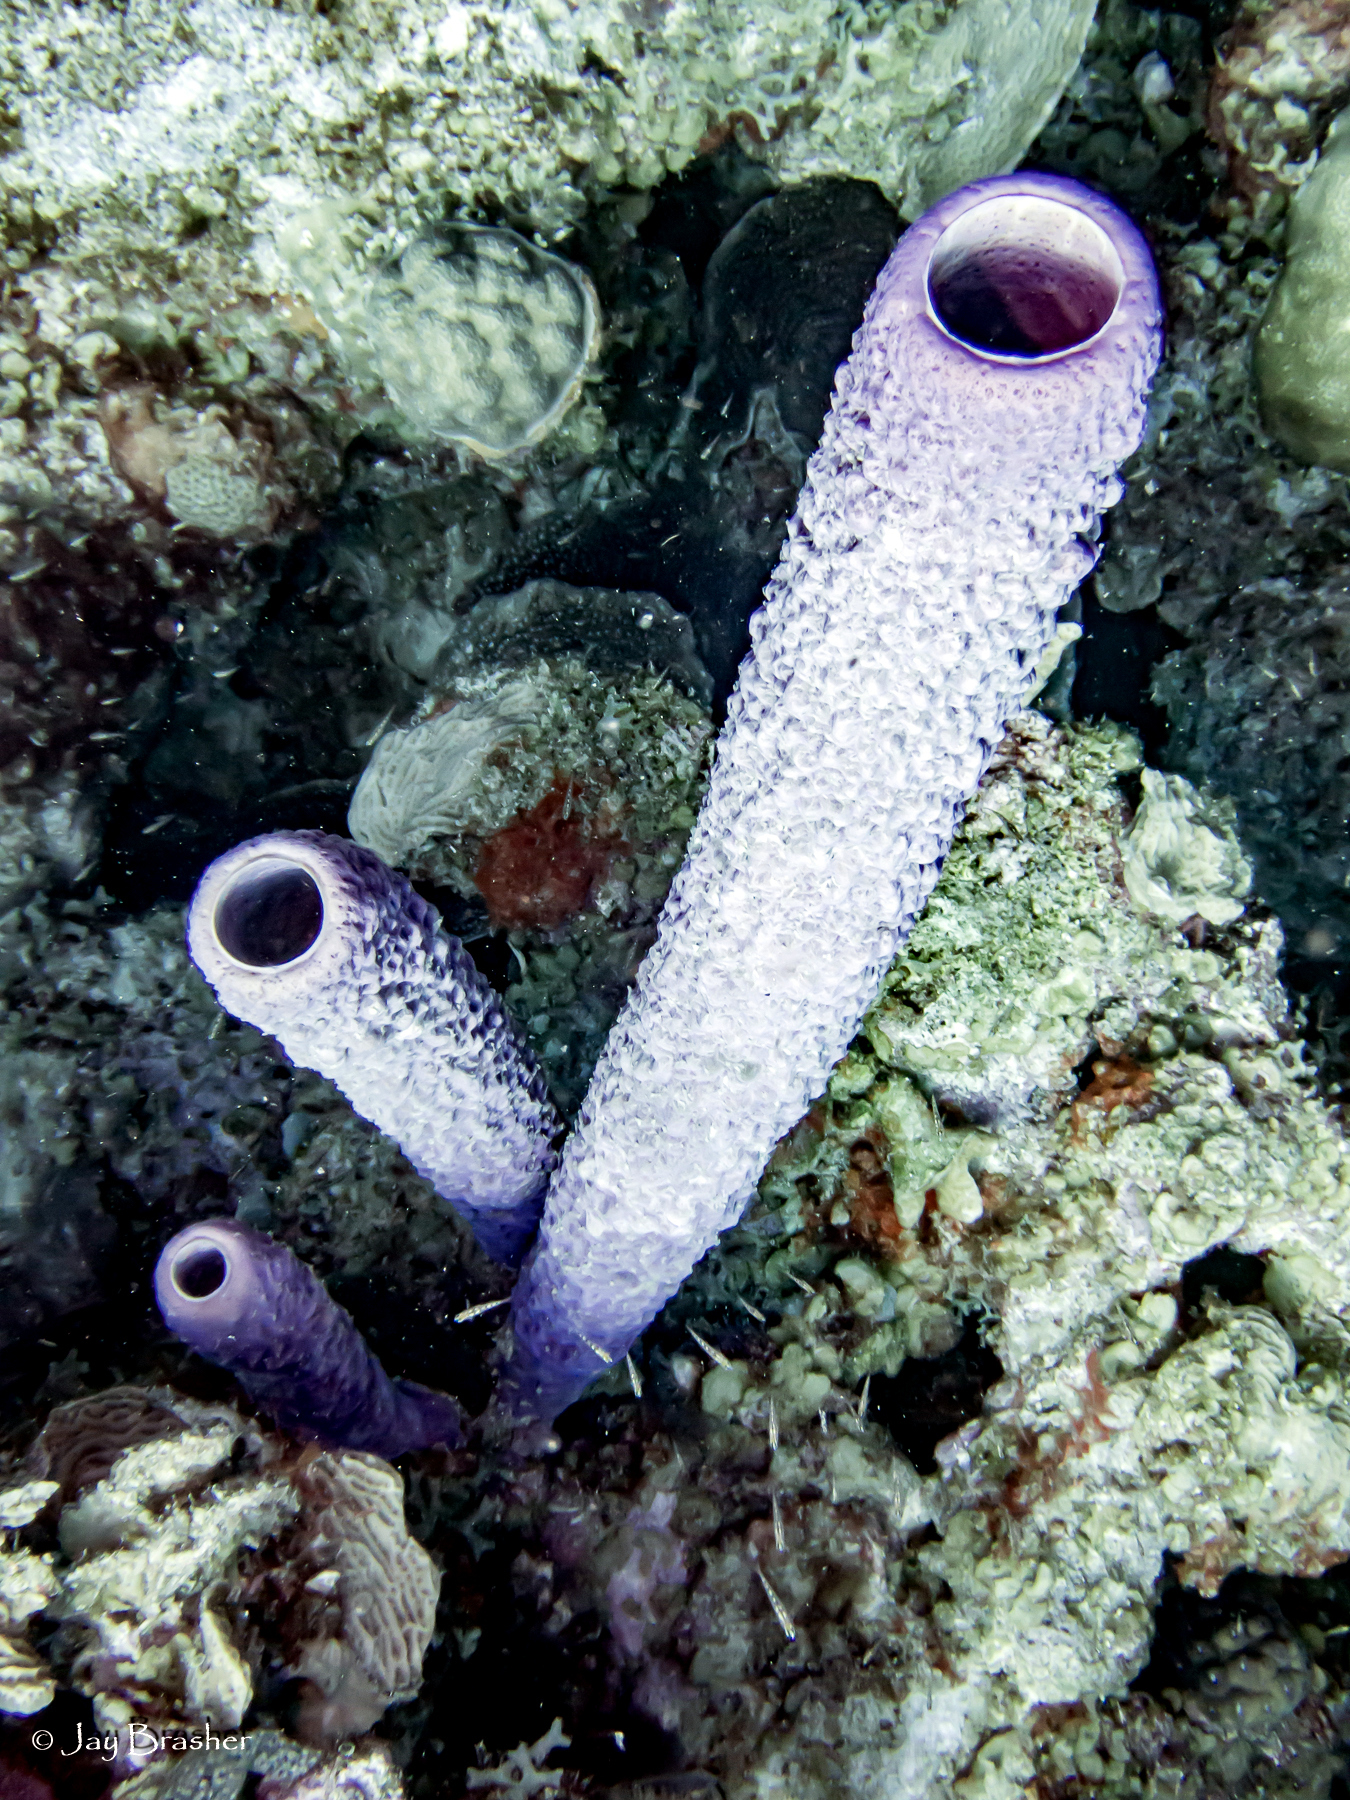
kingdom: Animalia
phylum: Porifera
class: Demospongiae
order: Verongiida
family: Aplysinidae
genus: Aplysina
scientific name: Aplysina archeri
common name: Stove-pipe sponge
